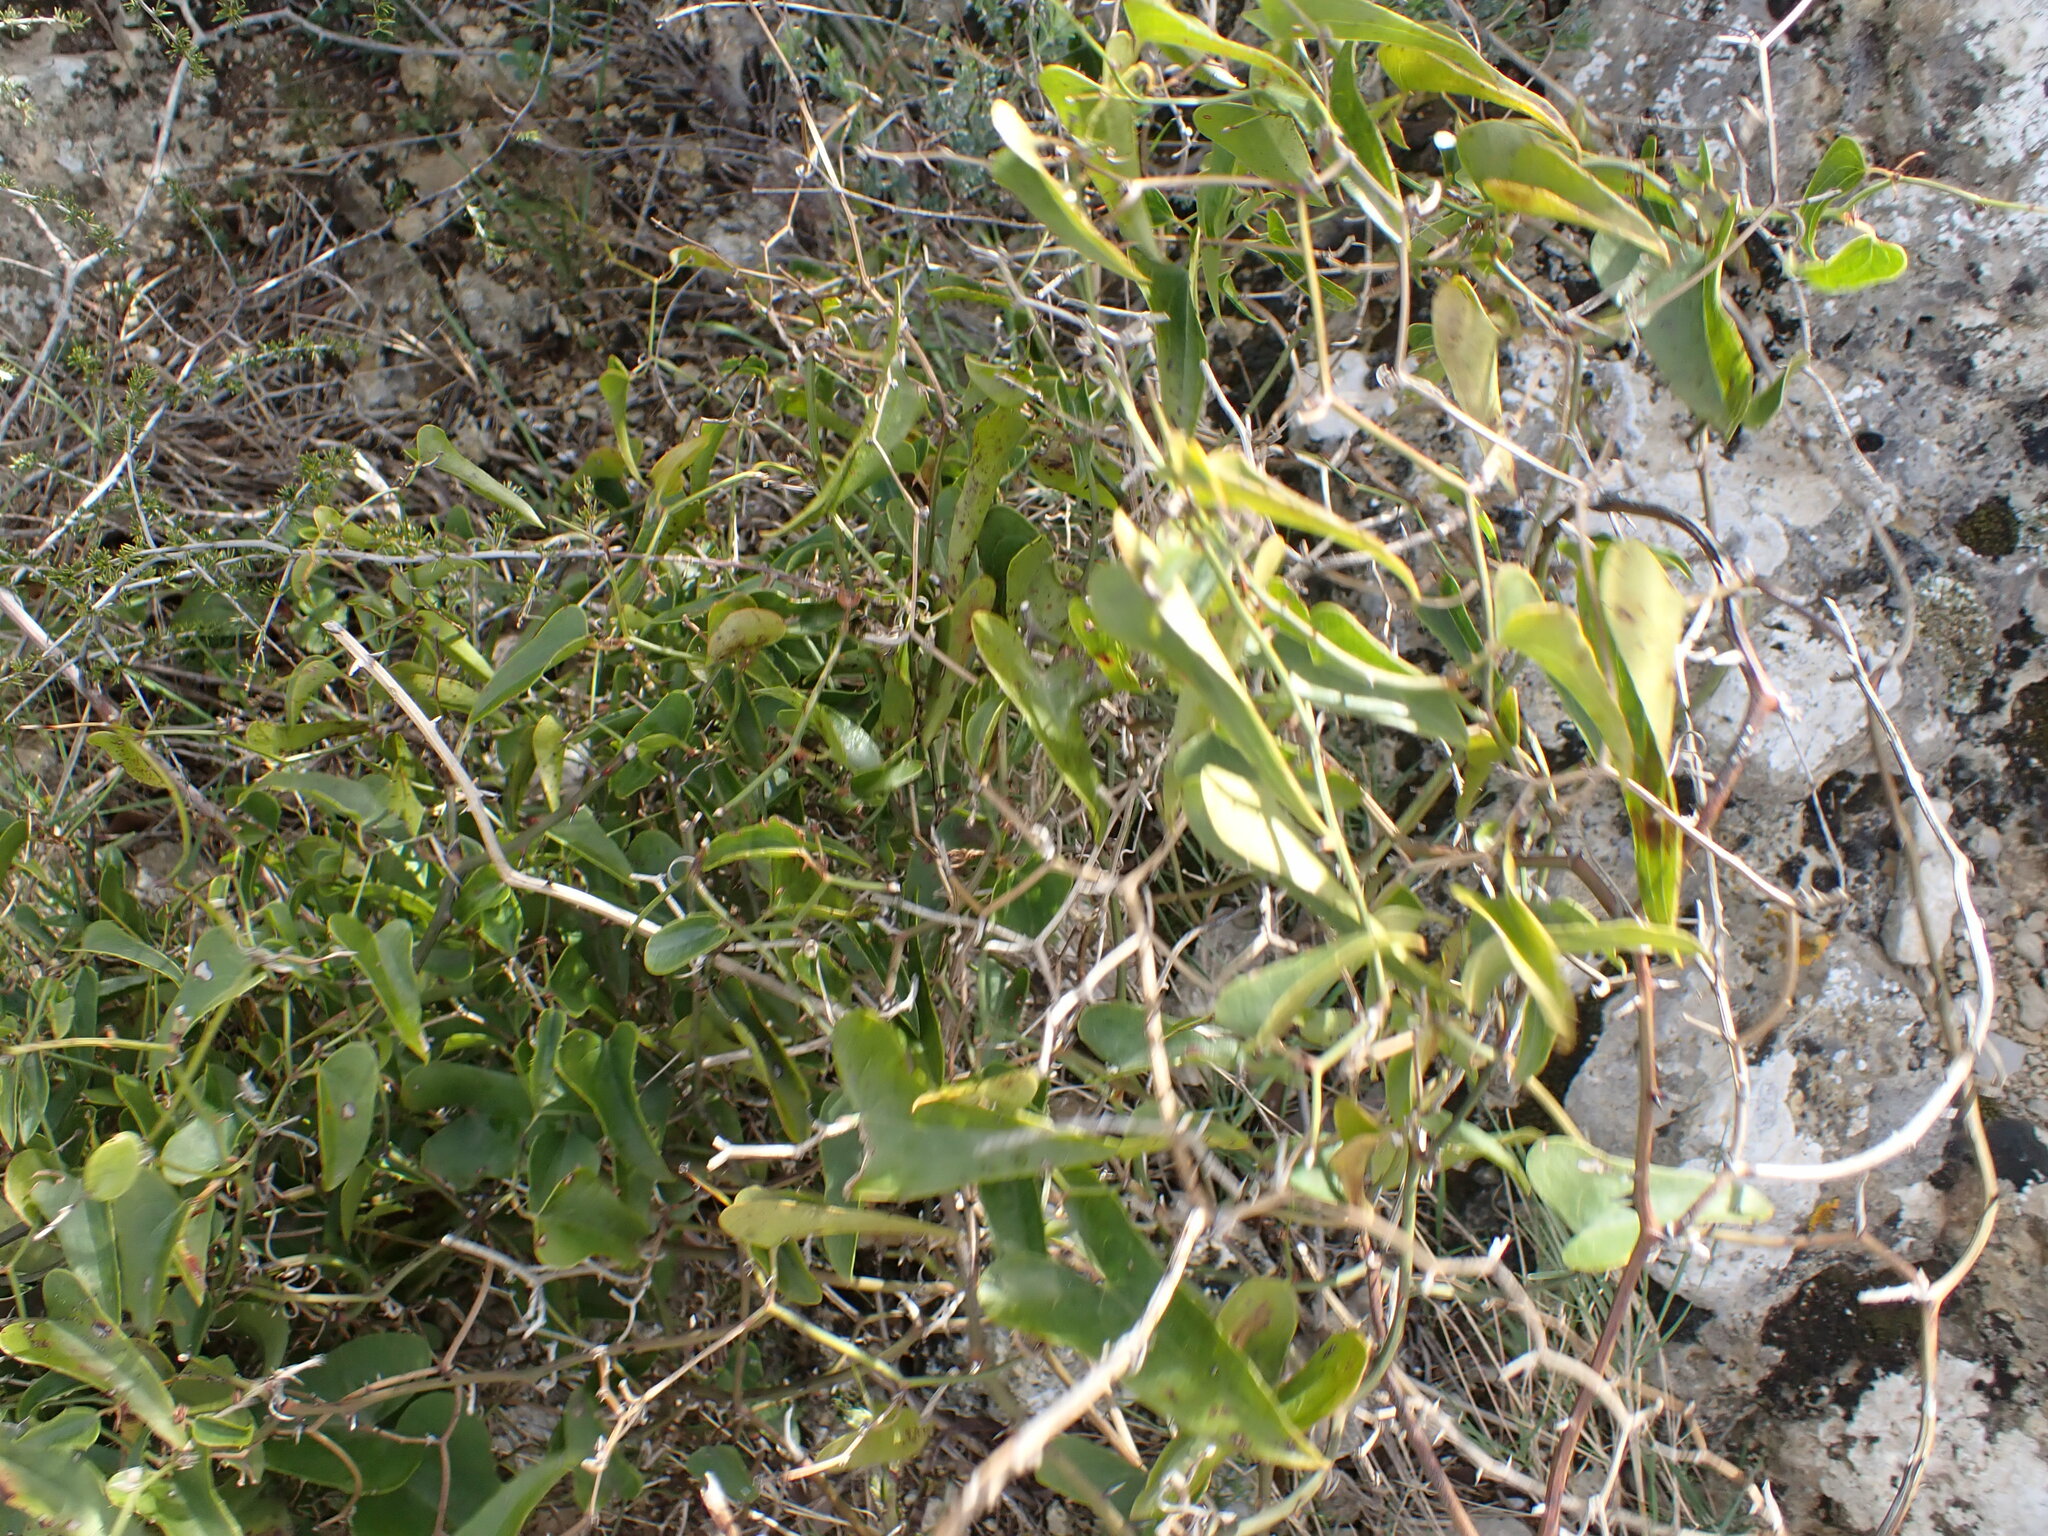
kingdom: Plantae
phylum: Tracheophyta
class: Liliopsida
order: Liliales
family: Smilacaceae
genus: Smilax
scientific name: Smilax aspera
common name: Common smilax
